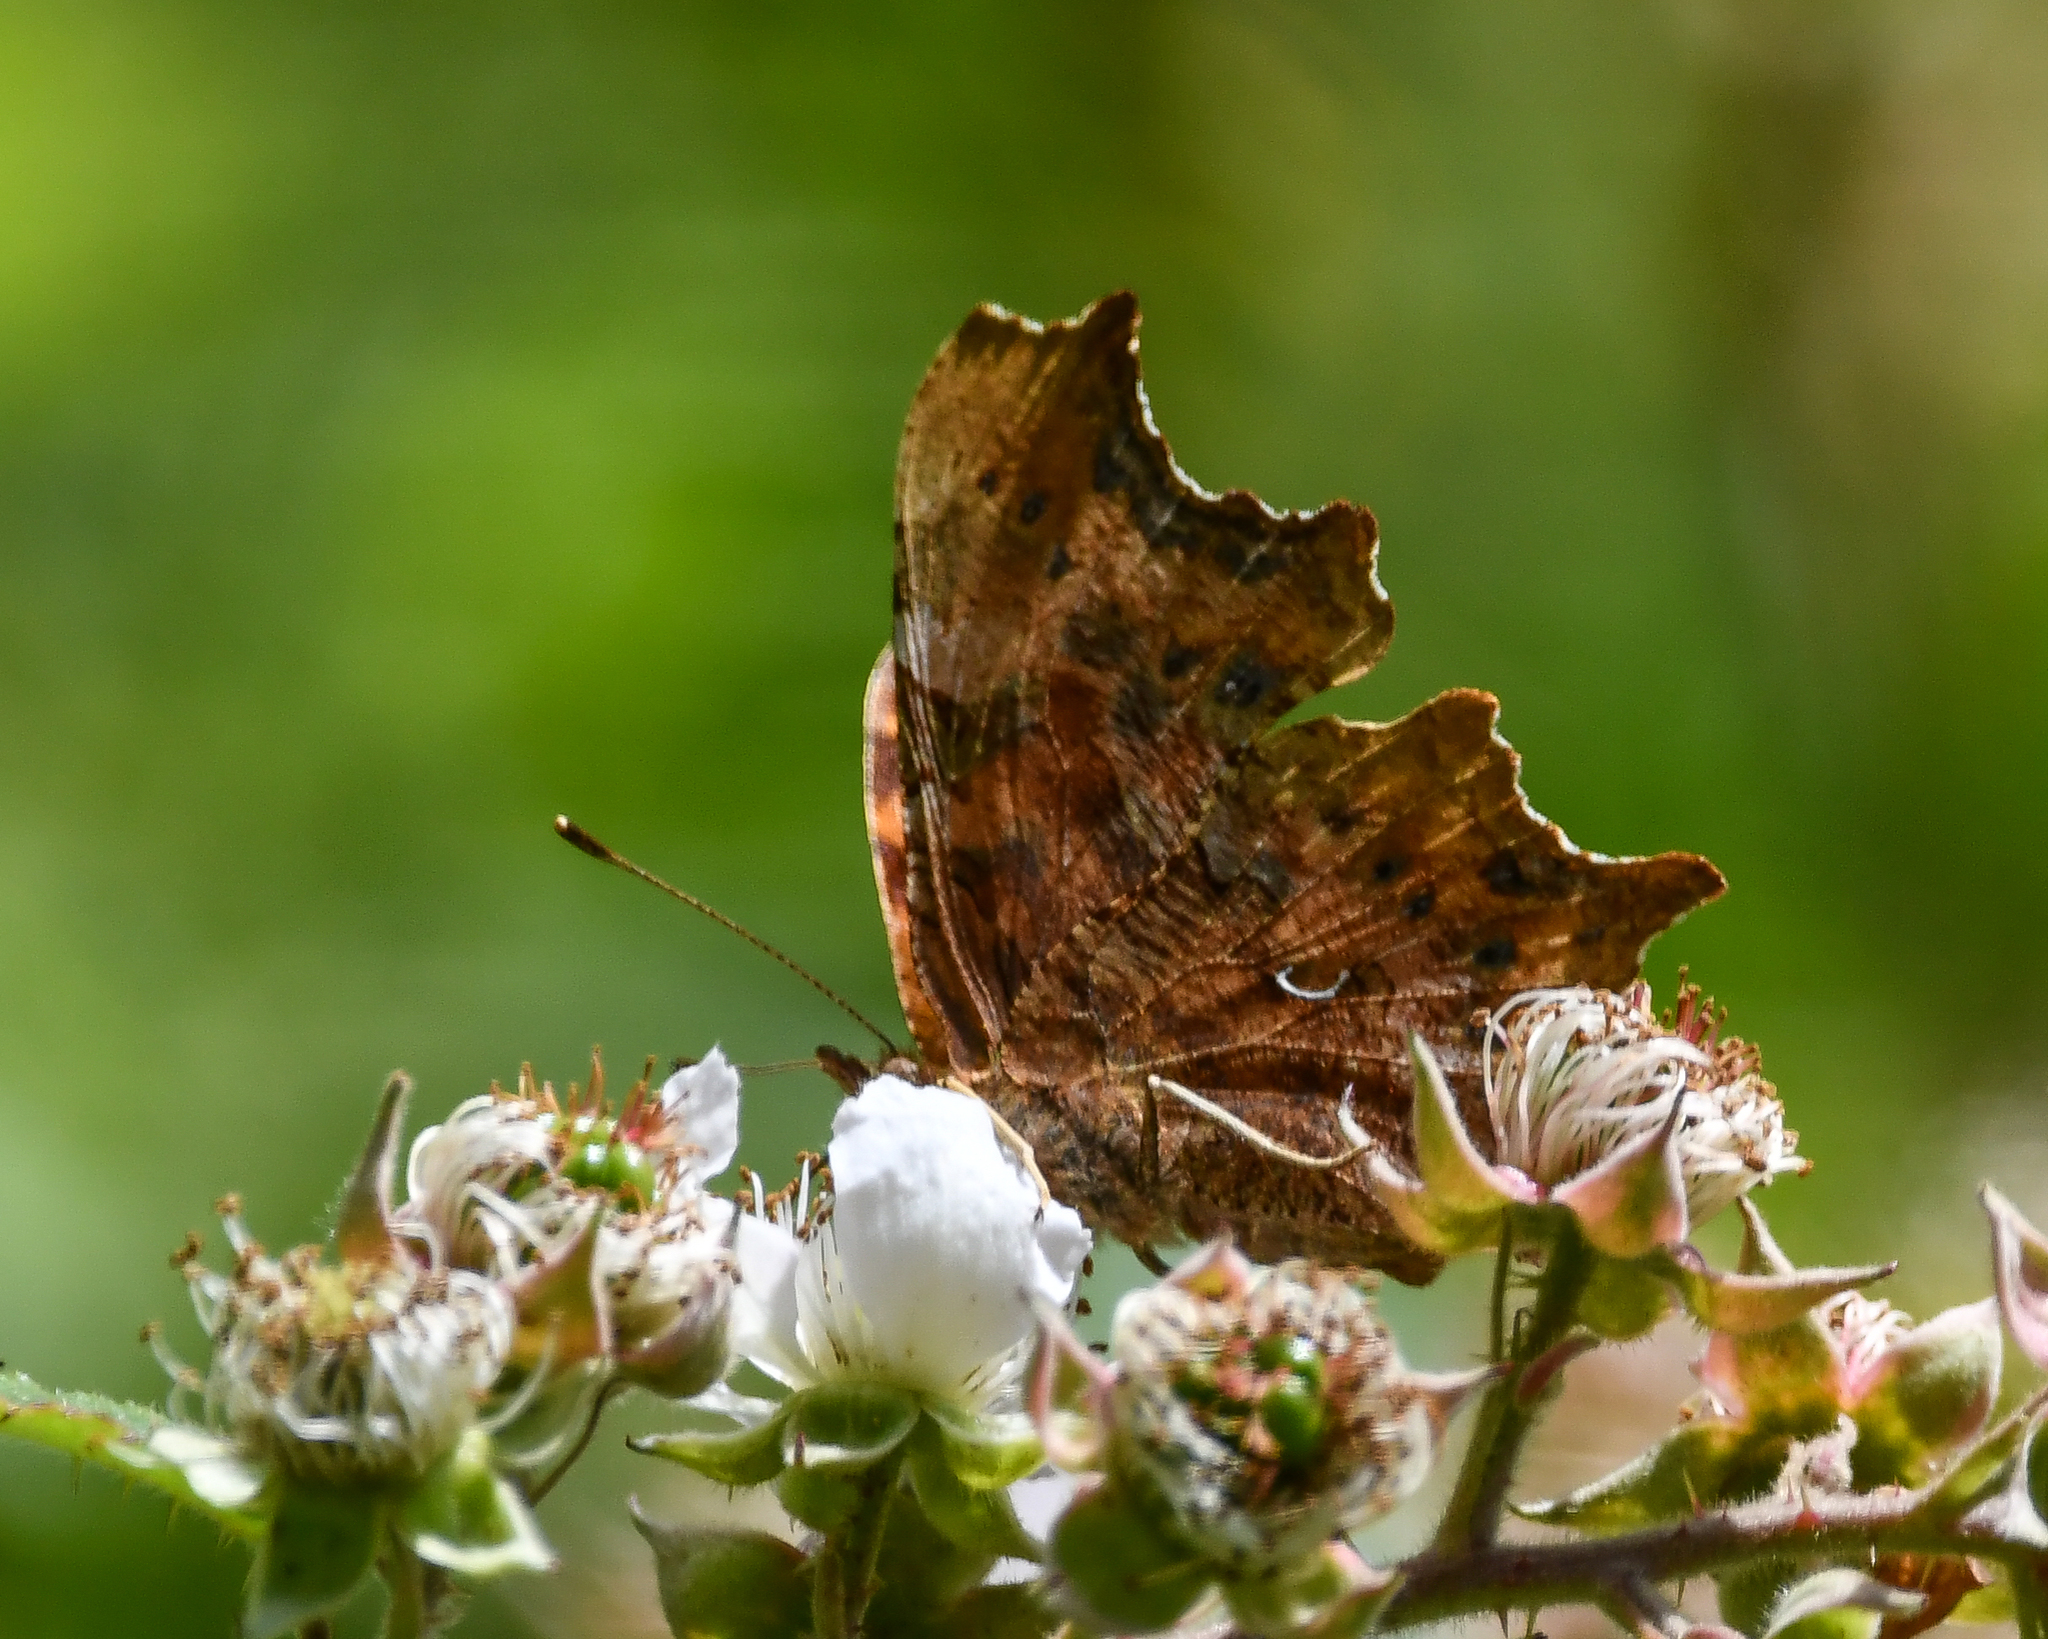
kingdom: Animalia
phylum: Arthropoda
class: Insecta
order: Lepidoptera
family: Nymphalidae
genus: Polygonia
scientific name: Polygonia c-album
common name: Comma
